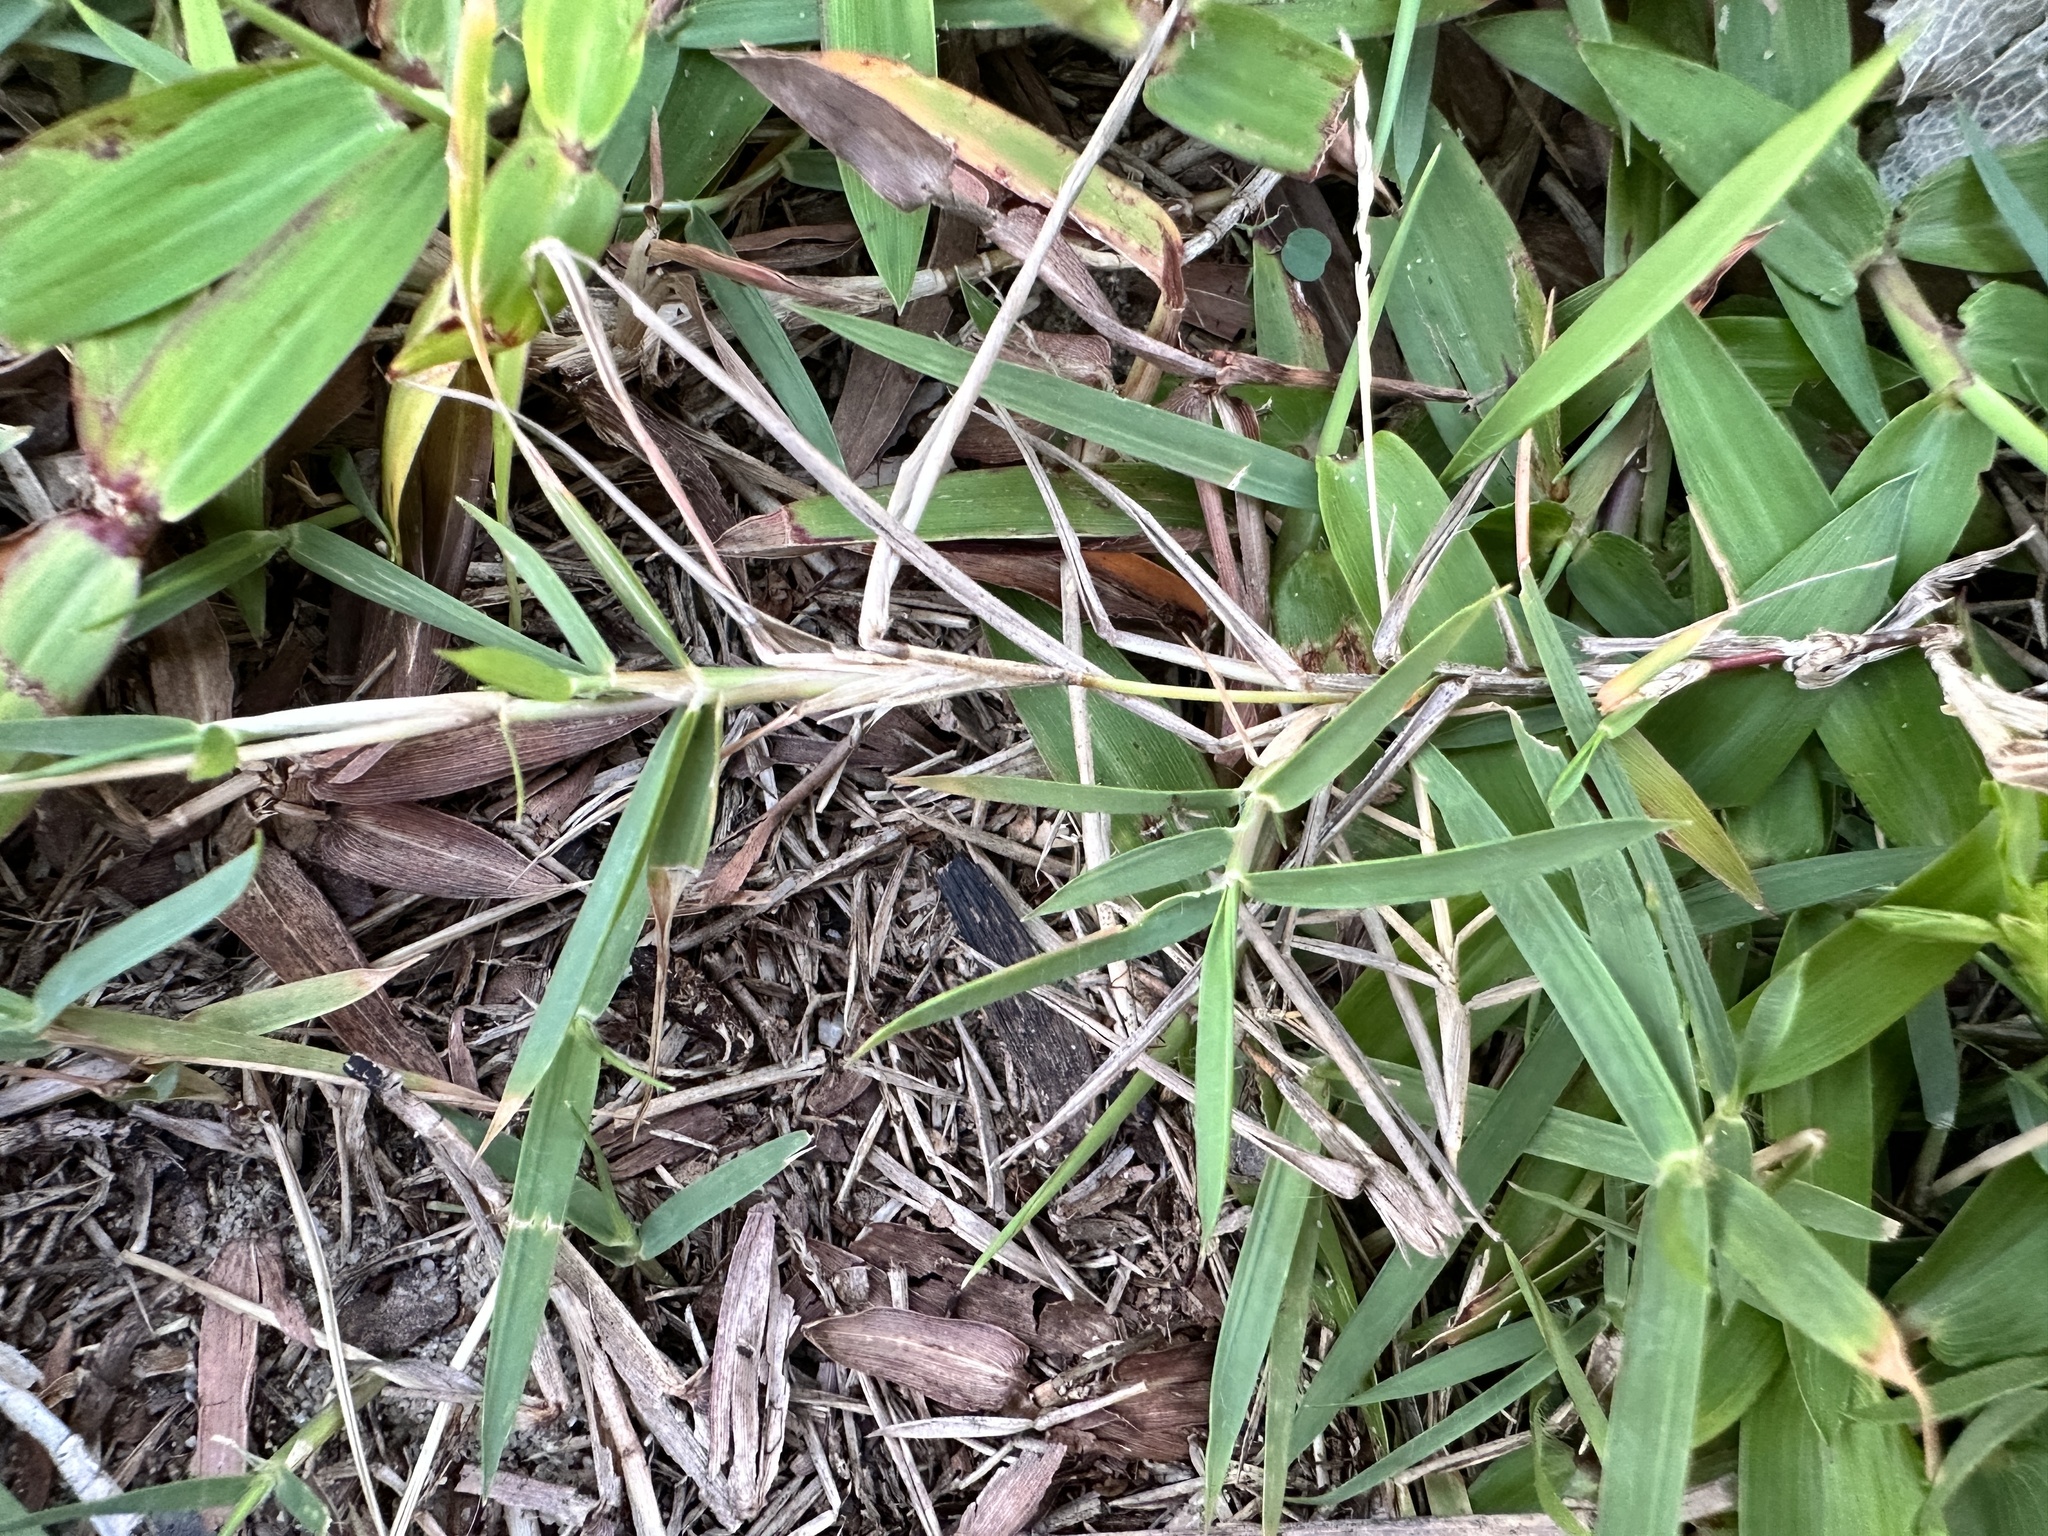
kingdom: Plantae
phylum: Tracheophyta
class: Liliopsida
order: Poales
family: Poaceae
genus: Zoysia
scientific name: Zoysia matrella
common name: Manila grass
